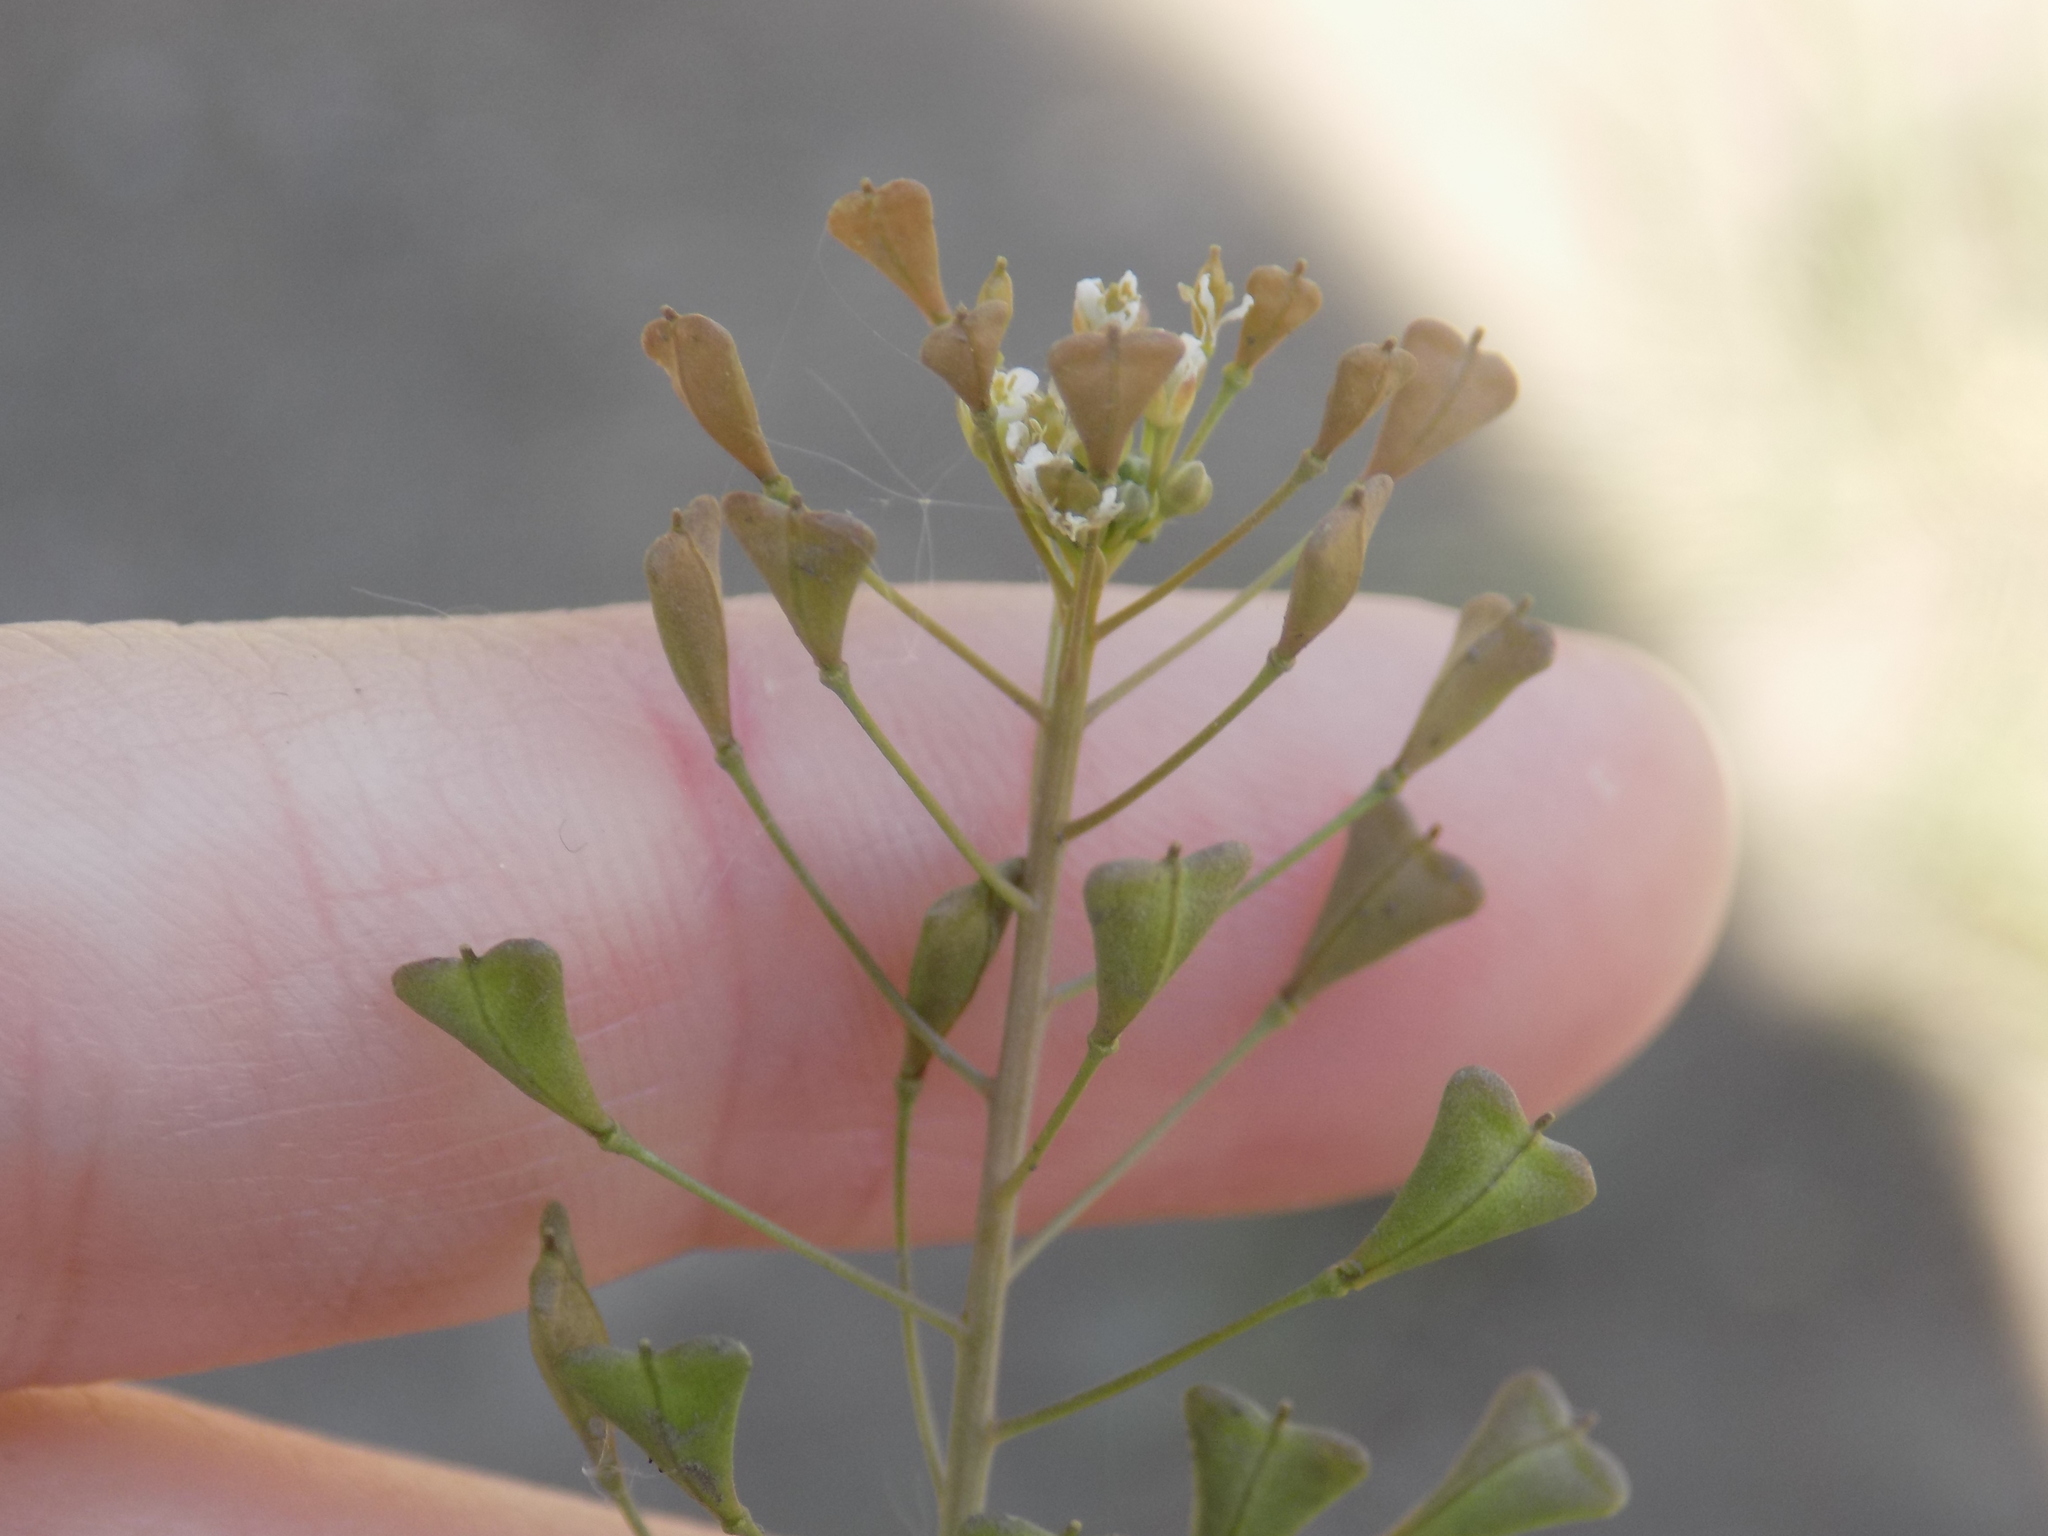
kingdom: Plantae
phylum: Tracheophyta
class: Magnoliopsida
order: Brassicales
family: Brassicaceae
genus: Capsella
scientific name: Capsella bursa-pastoris
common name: Shepherd's purse
